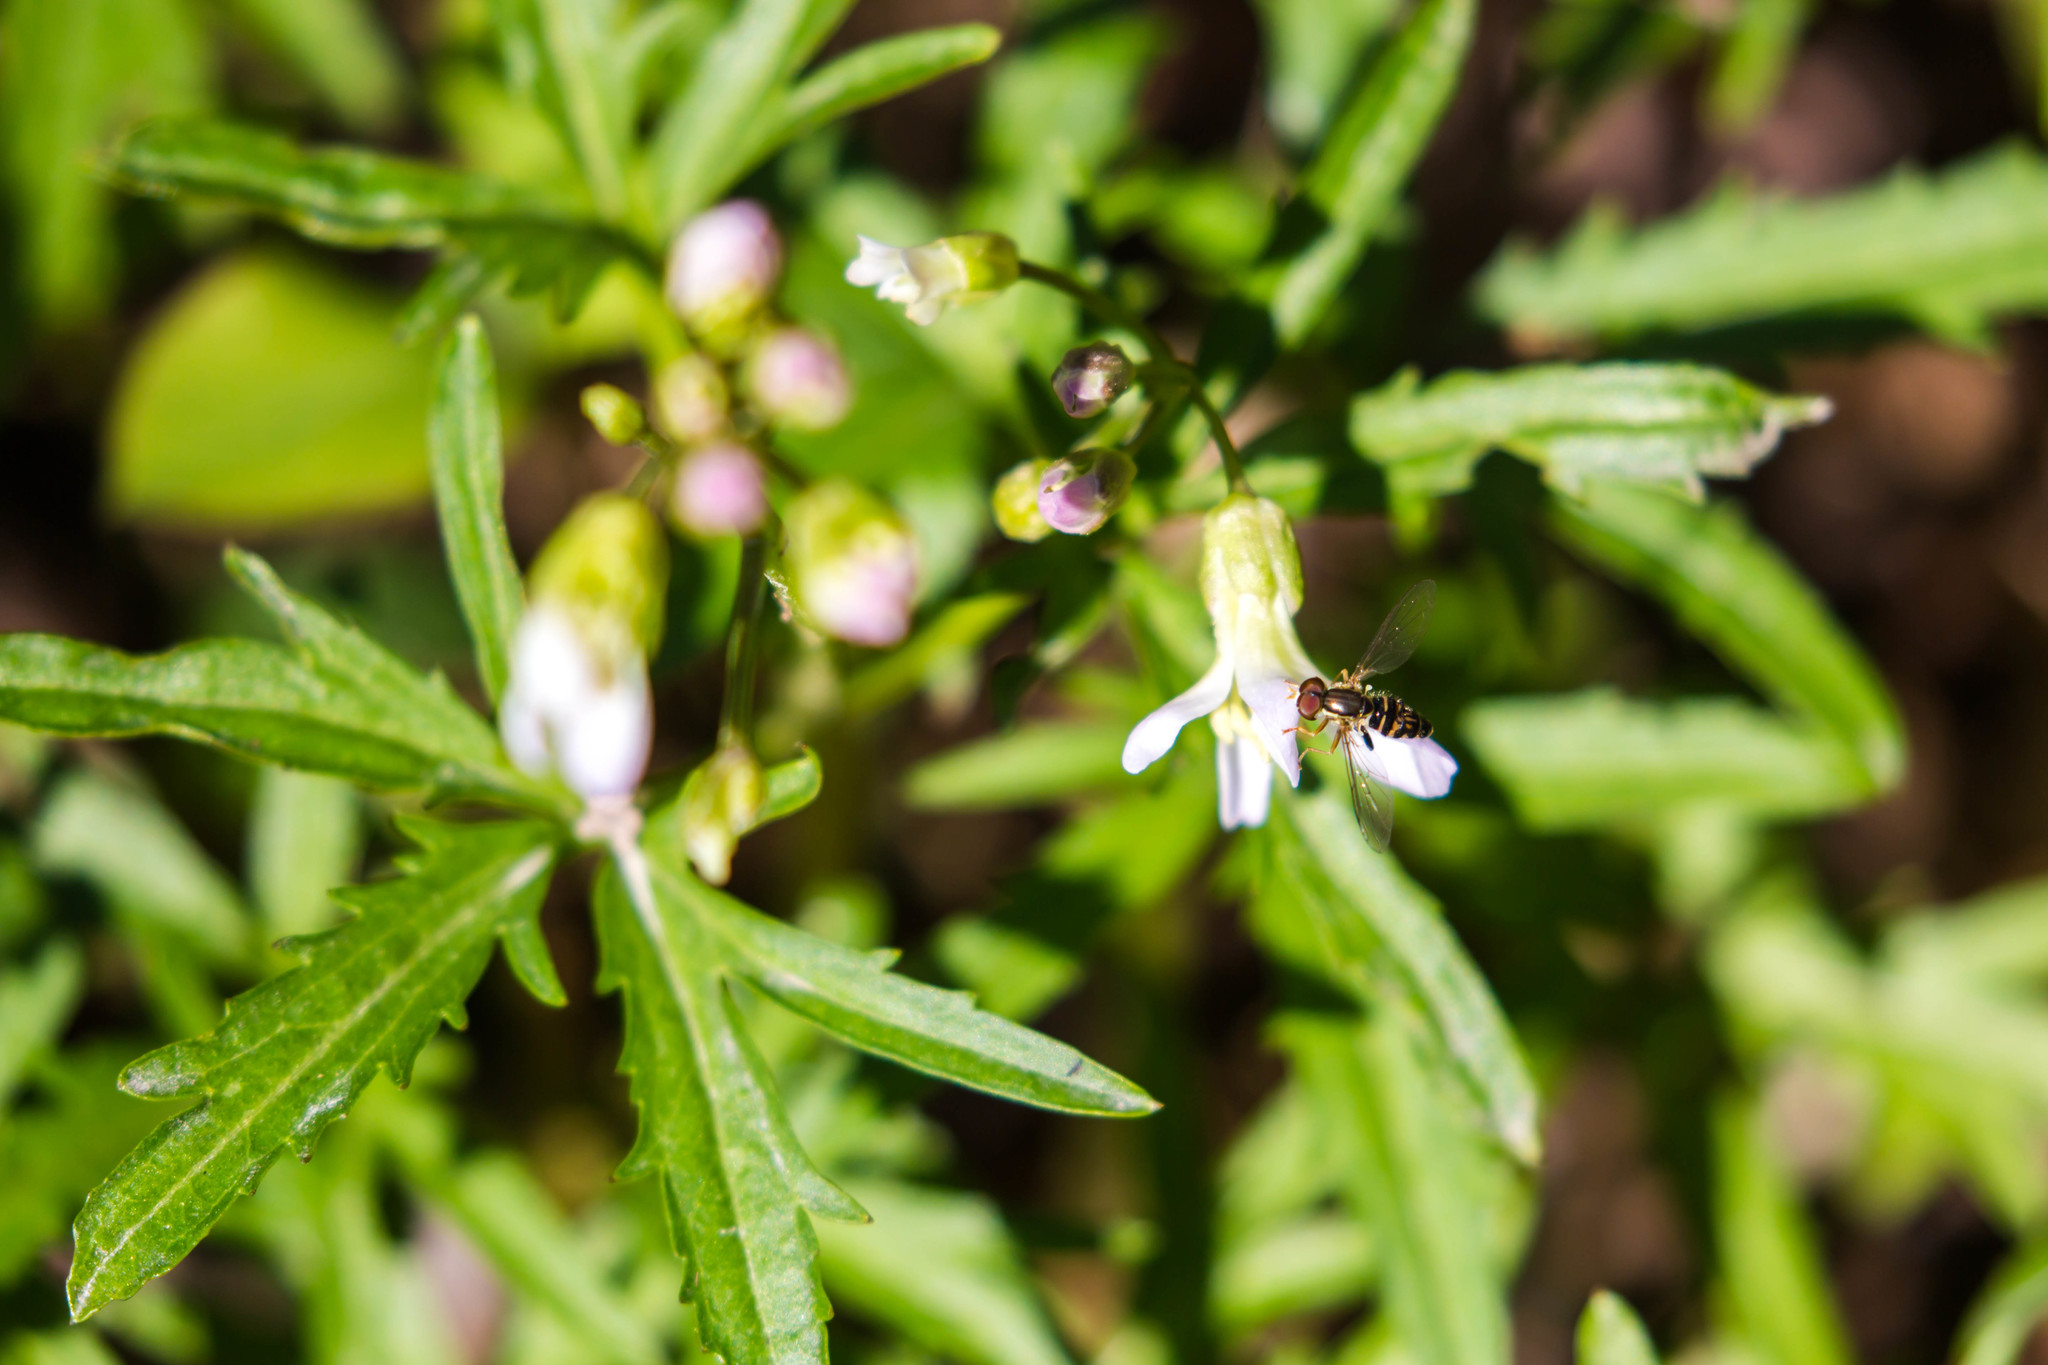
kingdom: Animalia
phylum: Arthropoda
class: Insecta
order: Diptera
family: Syrphidae
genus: Toxomerus
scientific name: Toxomerus geminatus
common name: Eastern calligrapher
